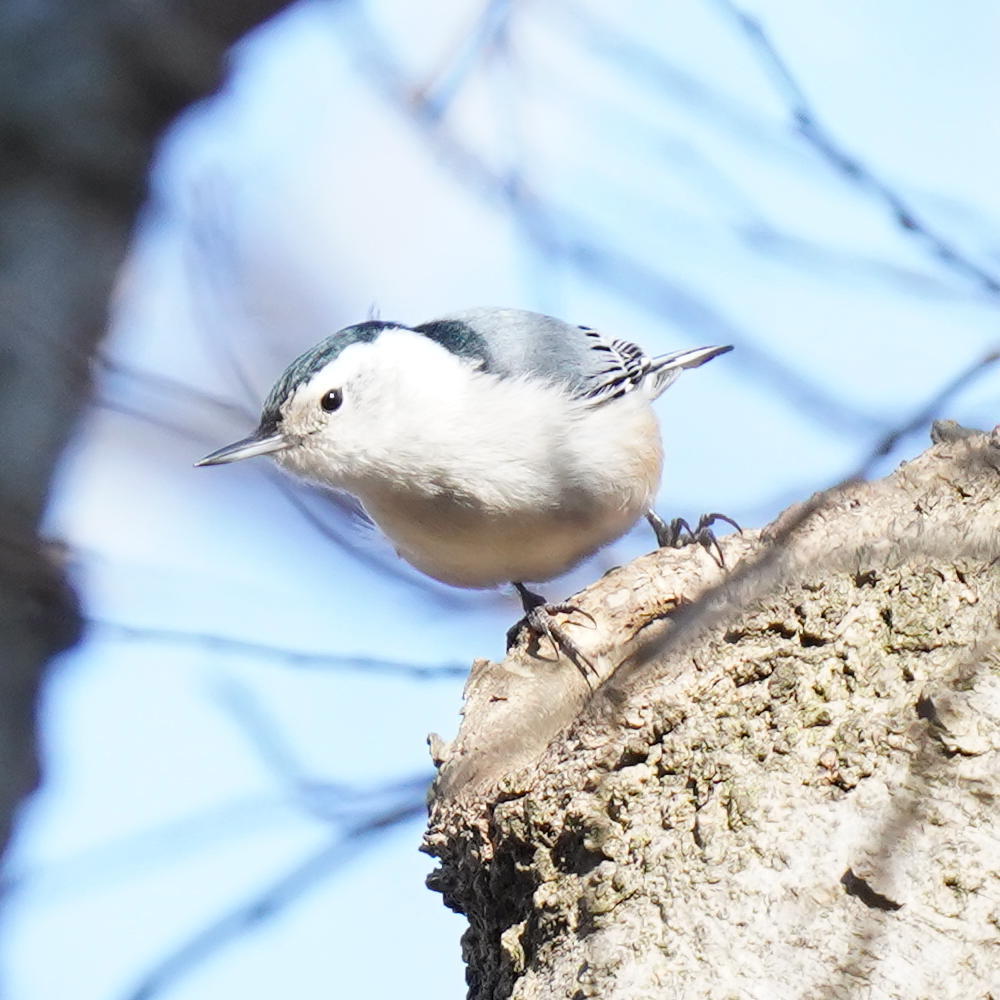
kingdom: Animalia
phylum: Chordata
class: Aves
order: Passeriformes
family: Sittidae
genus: Sitta
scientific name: Sitta carolinensis
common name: White-breasted nuthatch
